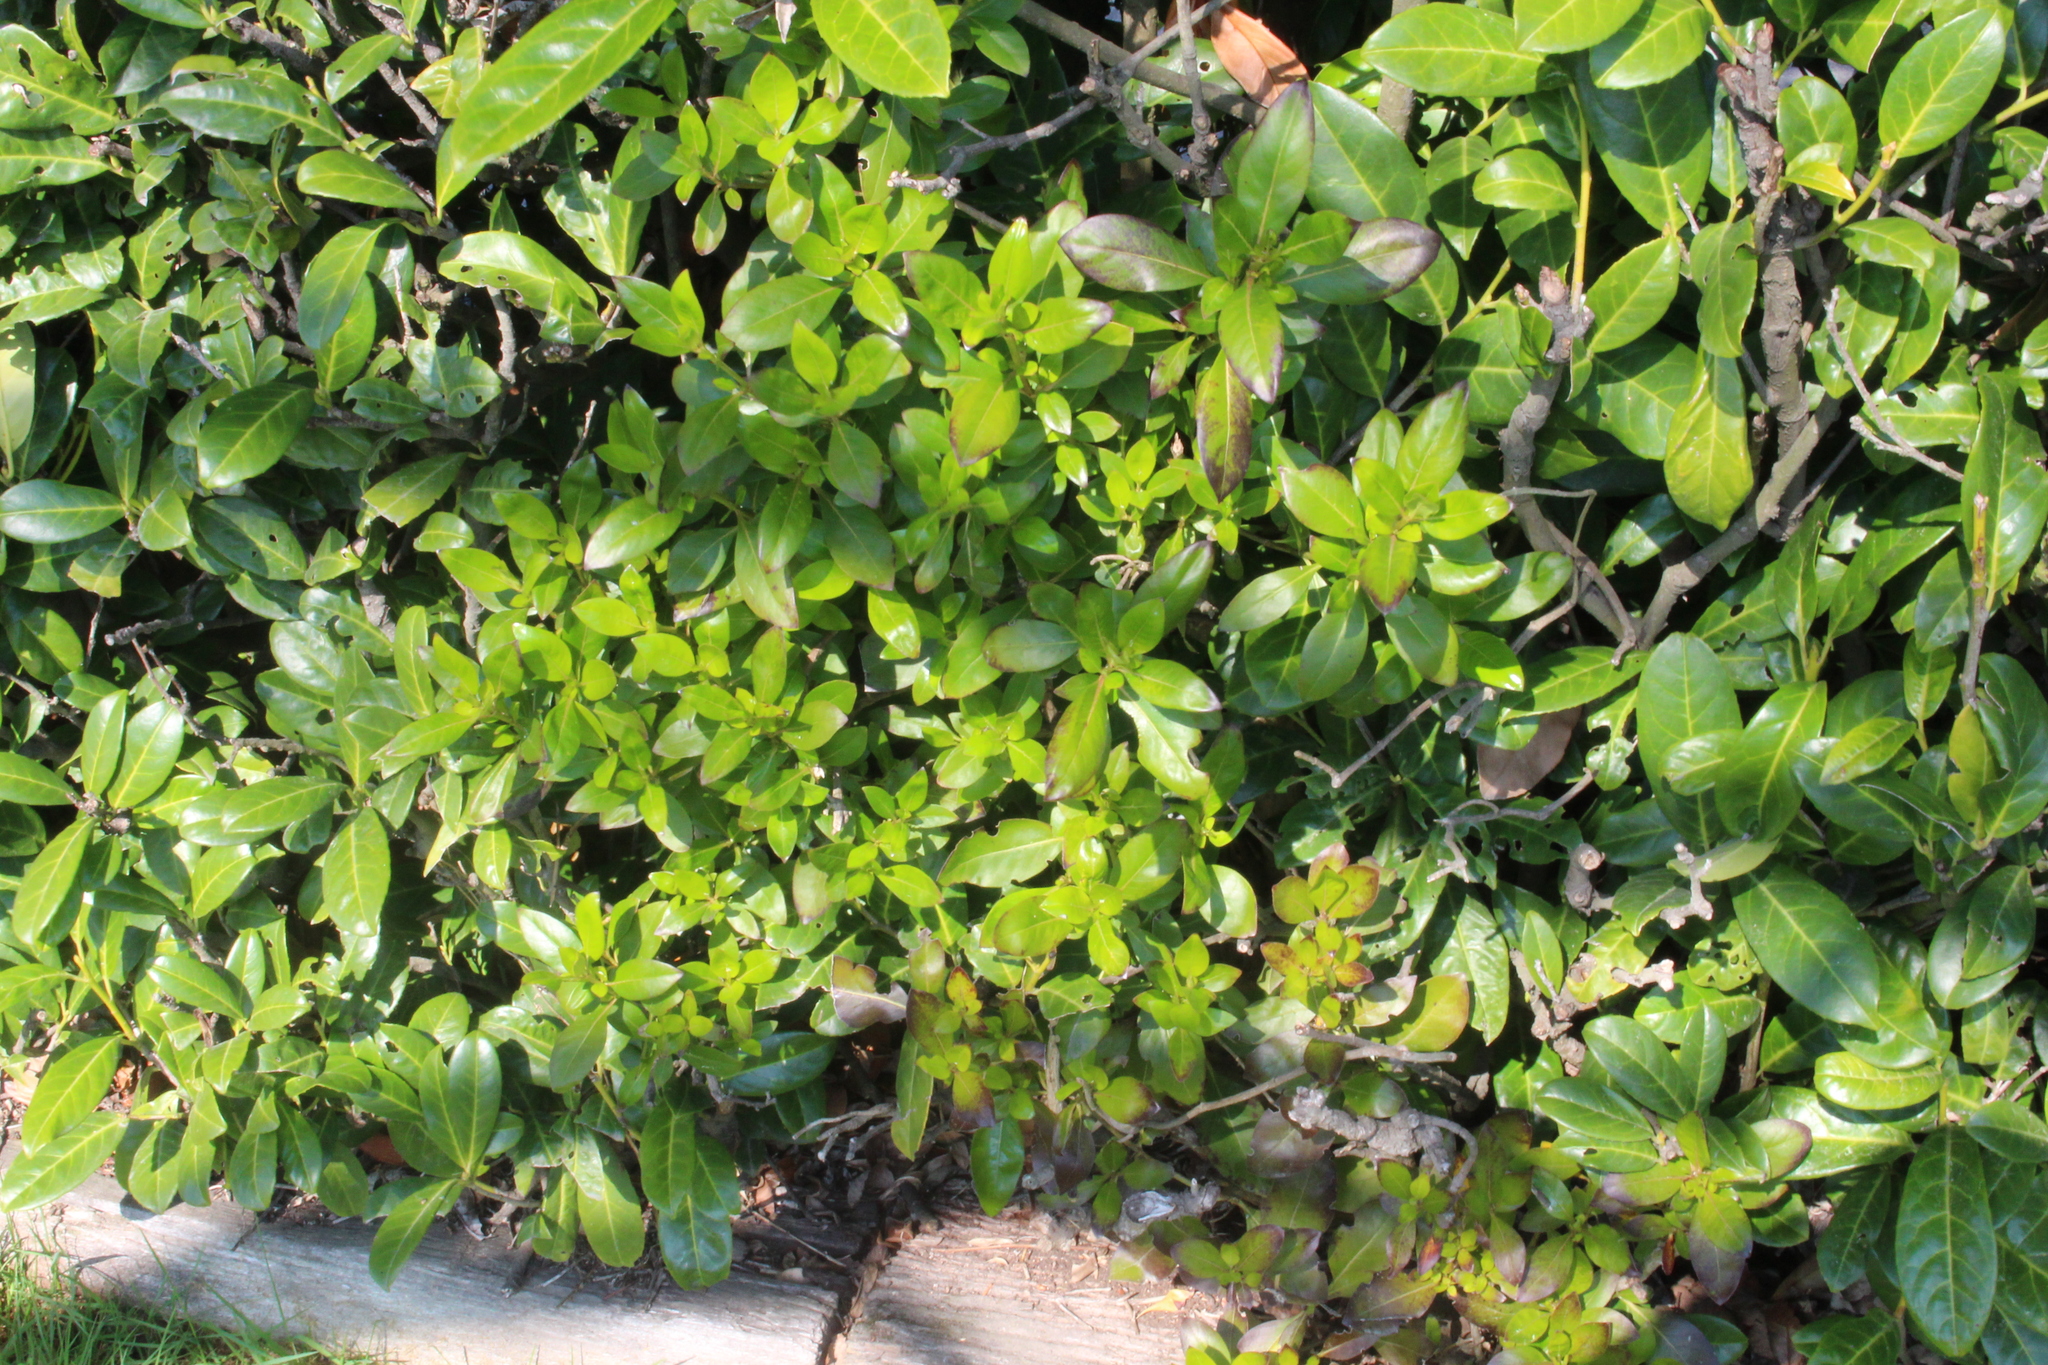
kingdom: Plantae
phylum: Tracheophyta
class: Magnoliopsida
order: Gentianales
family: Rubiaceae
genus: Coprosma
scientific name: Coprosma robusta
